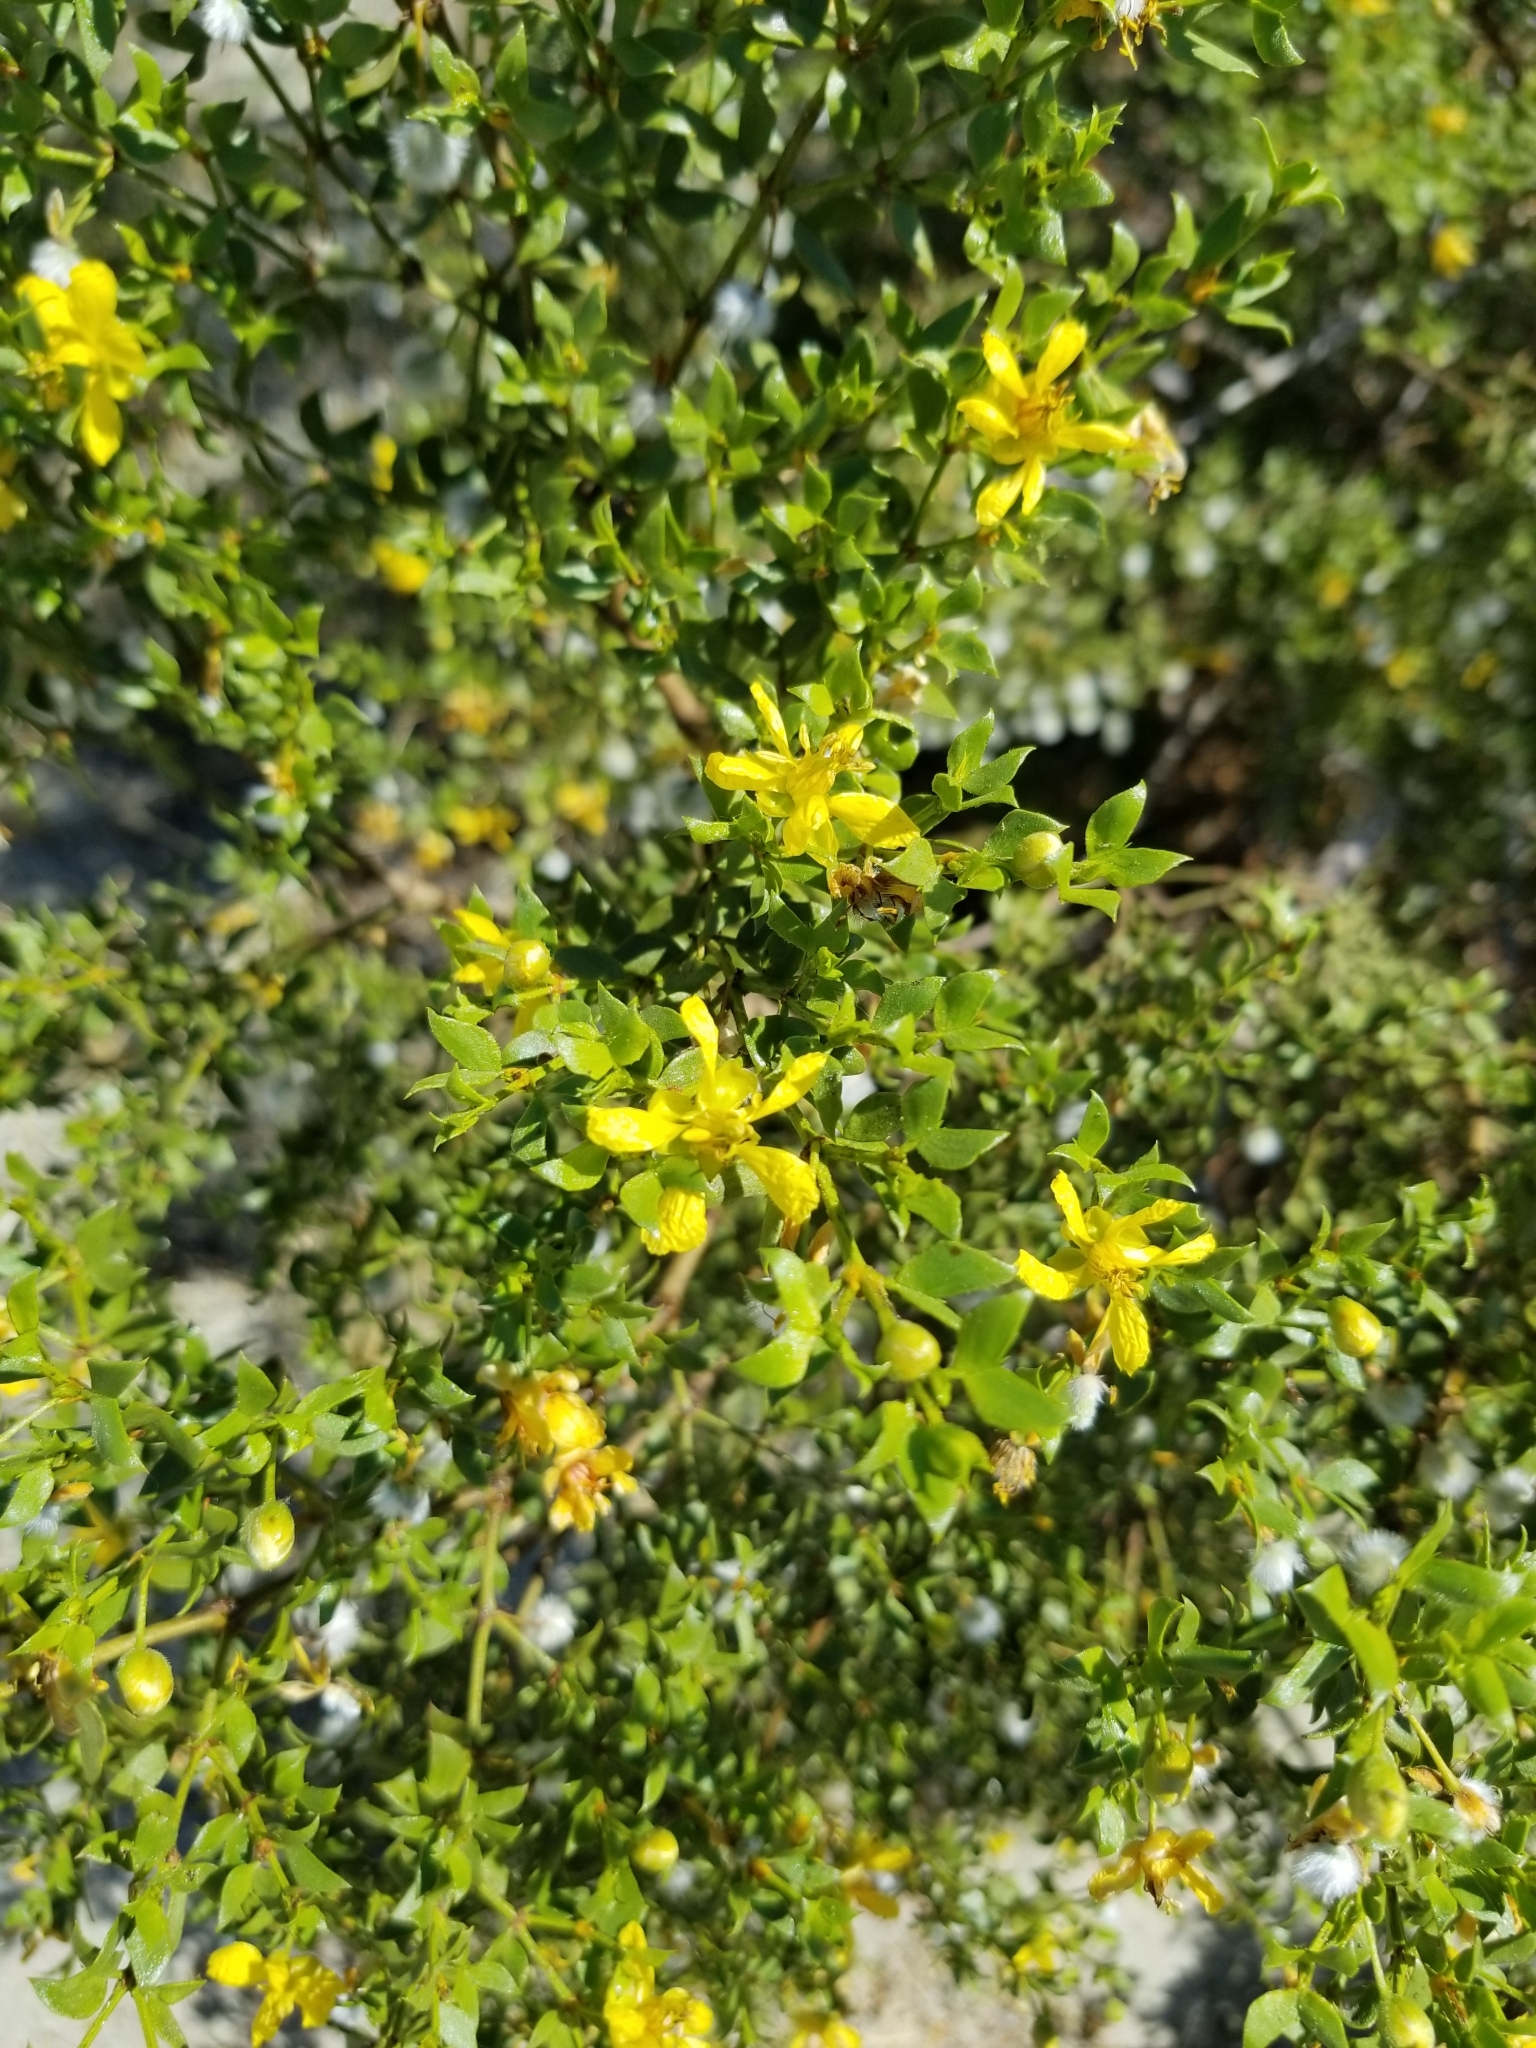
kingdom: Plantae
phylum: Tracheophyta
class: Magnoliopsida
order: Zygophyllales
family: Zygophyllaceae
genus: Larrea
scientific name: Larrea tridentata
